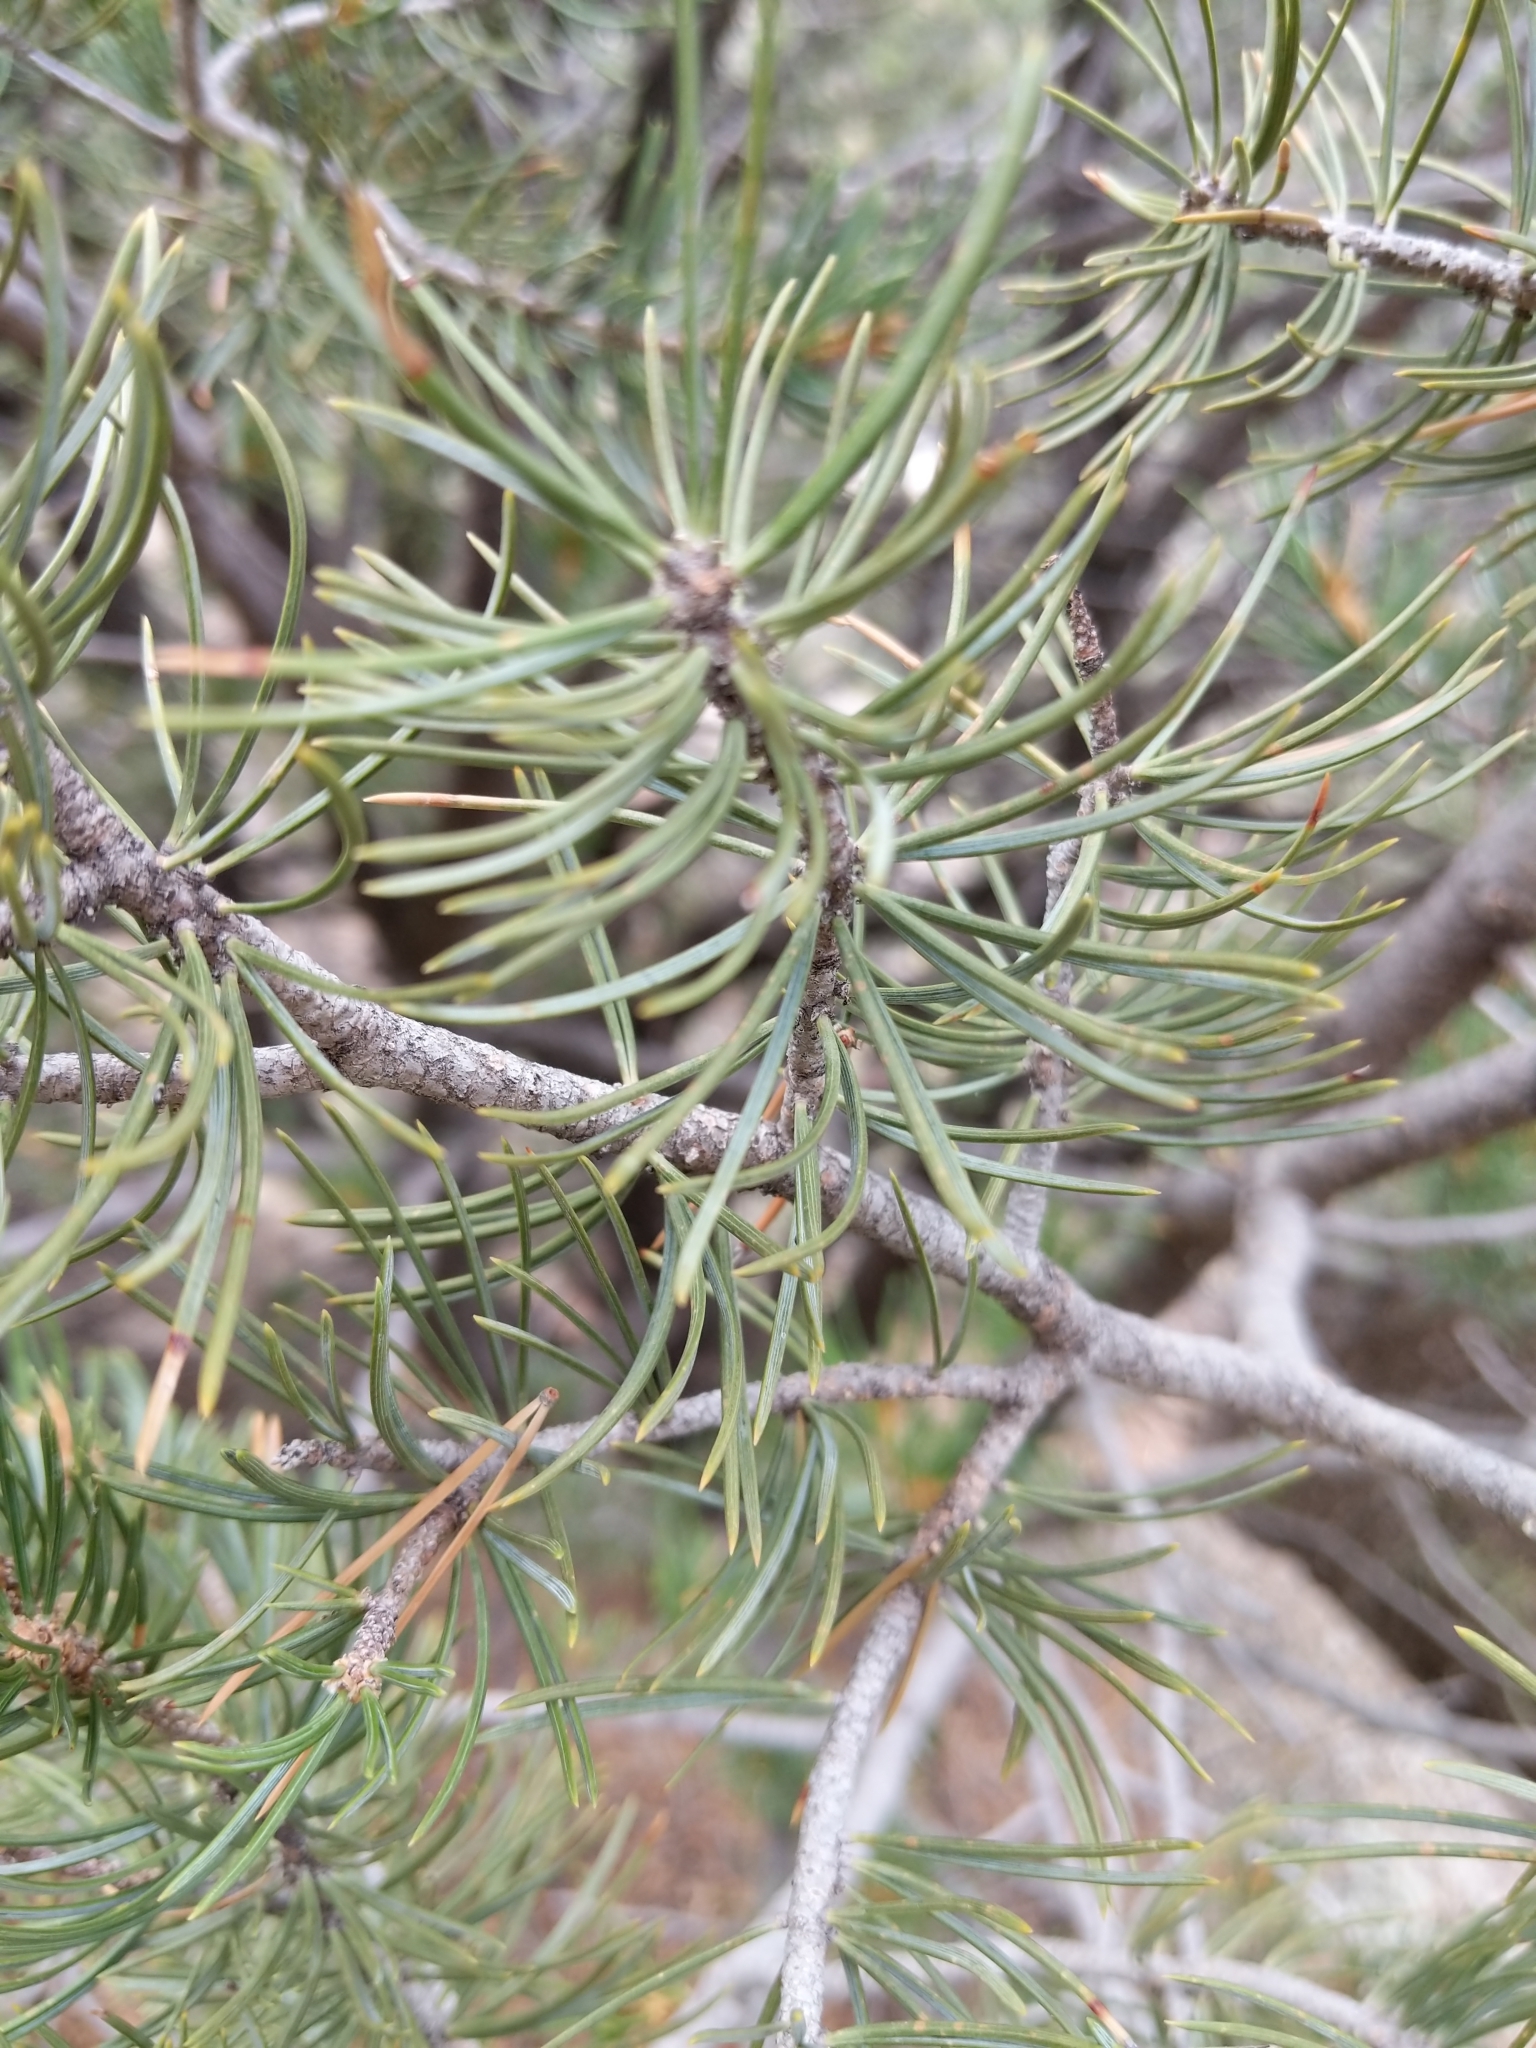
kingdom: Plantae
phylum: Tracheophyta
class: Pinopsida
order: Pinales
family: Pinaceae
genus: Pinus
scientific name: Pinus edulis
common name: Colorado pinyon
